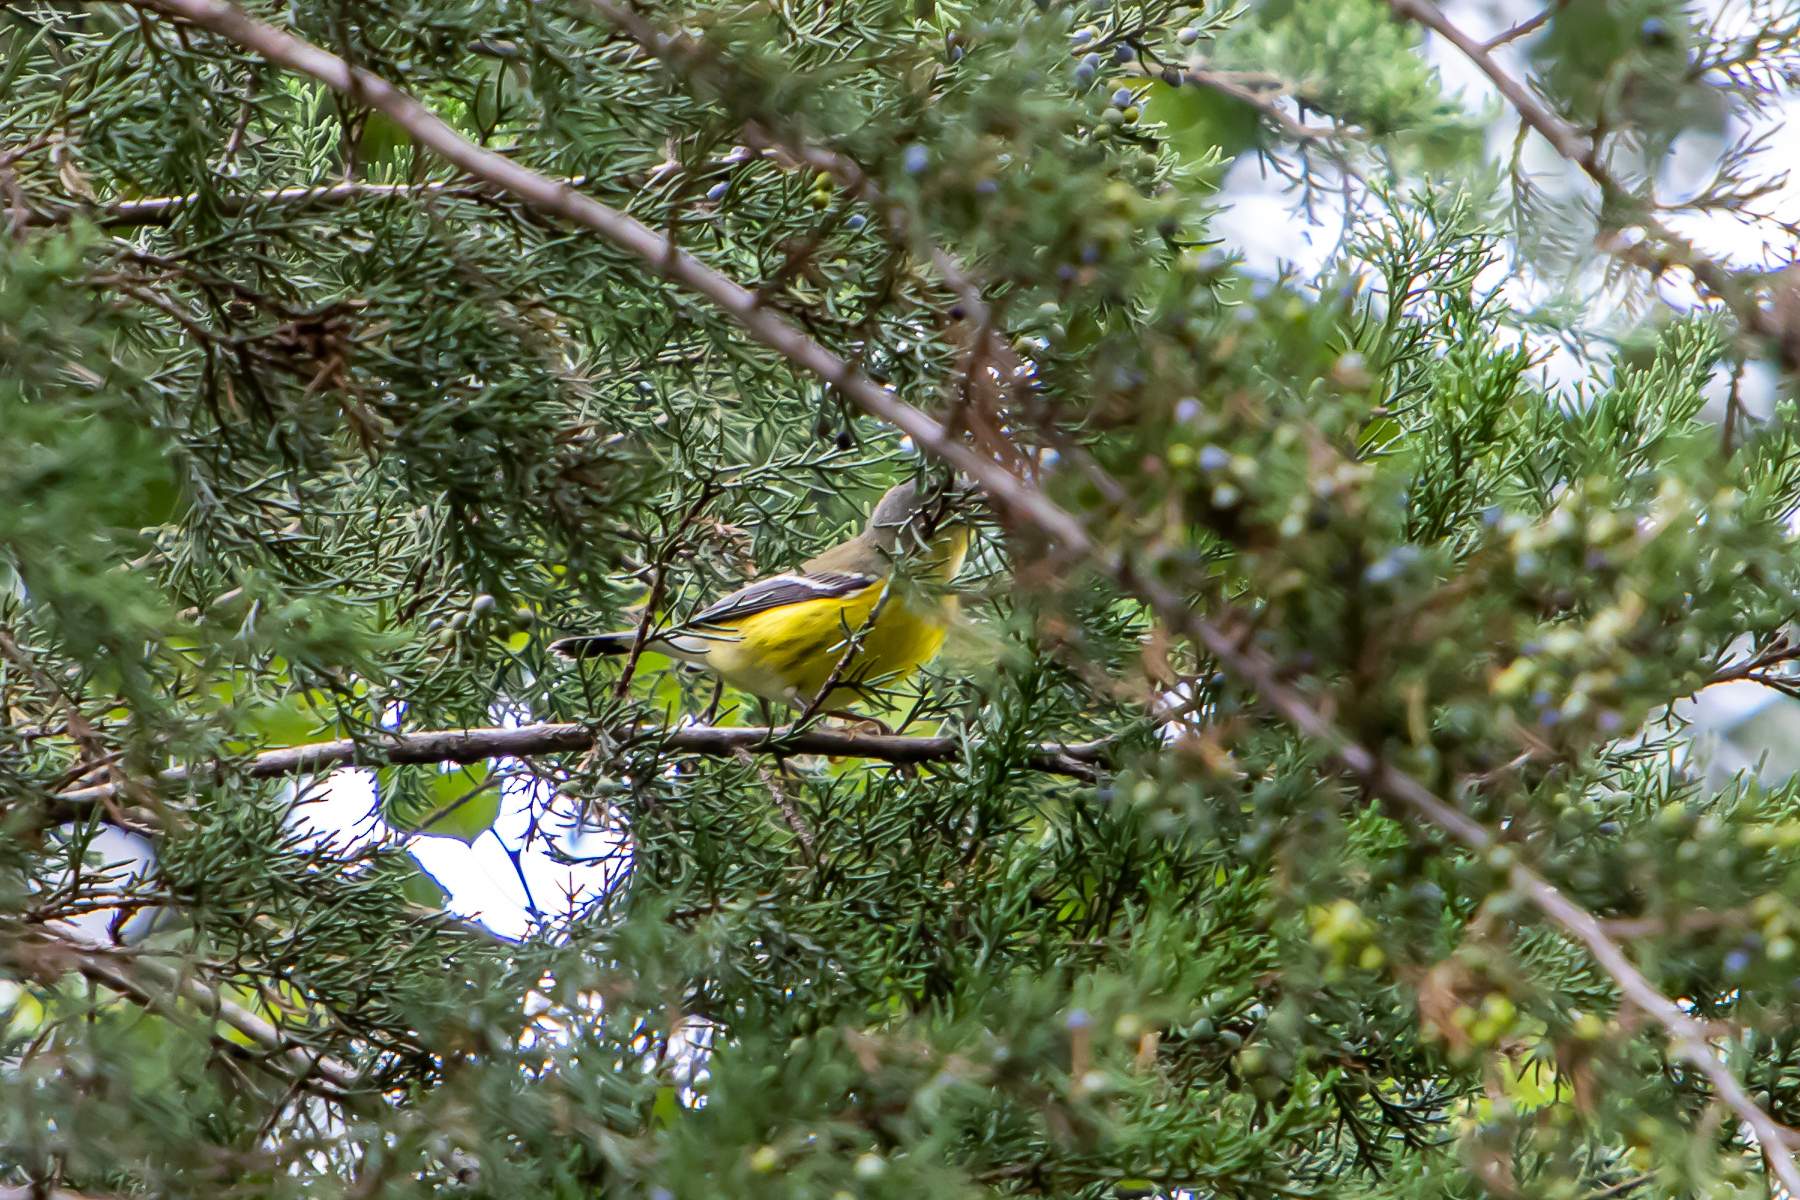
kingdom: Animalia
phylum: Chordata
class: Aves
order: Passeriformes
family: Parulidae
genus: Setophaga
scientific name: Setophaga magnolia
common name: Magnolia warbler
